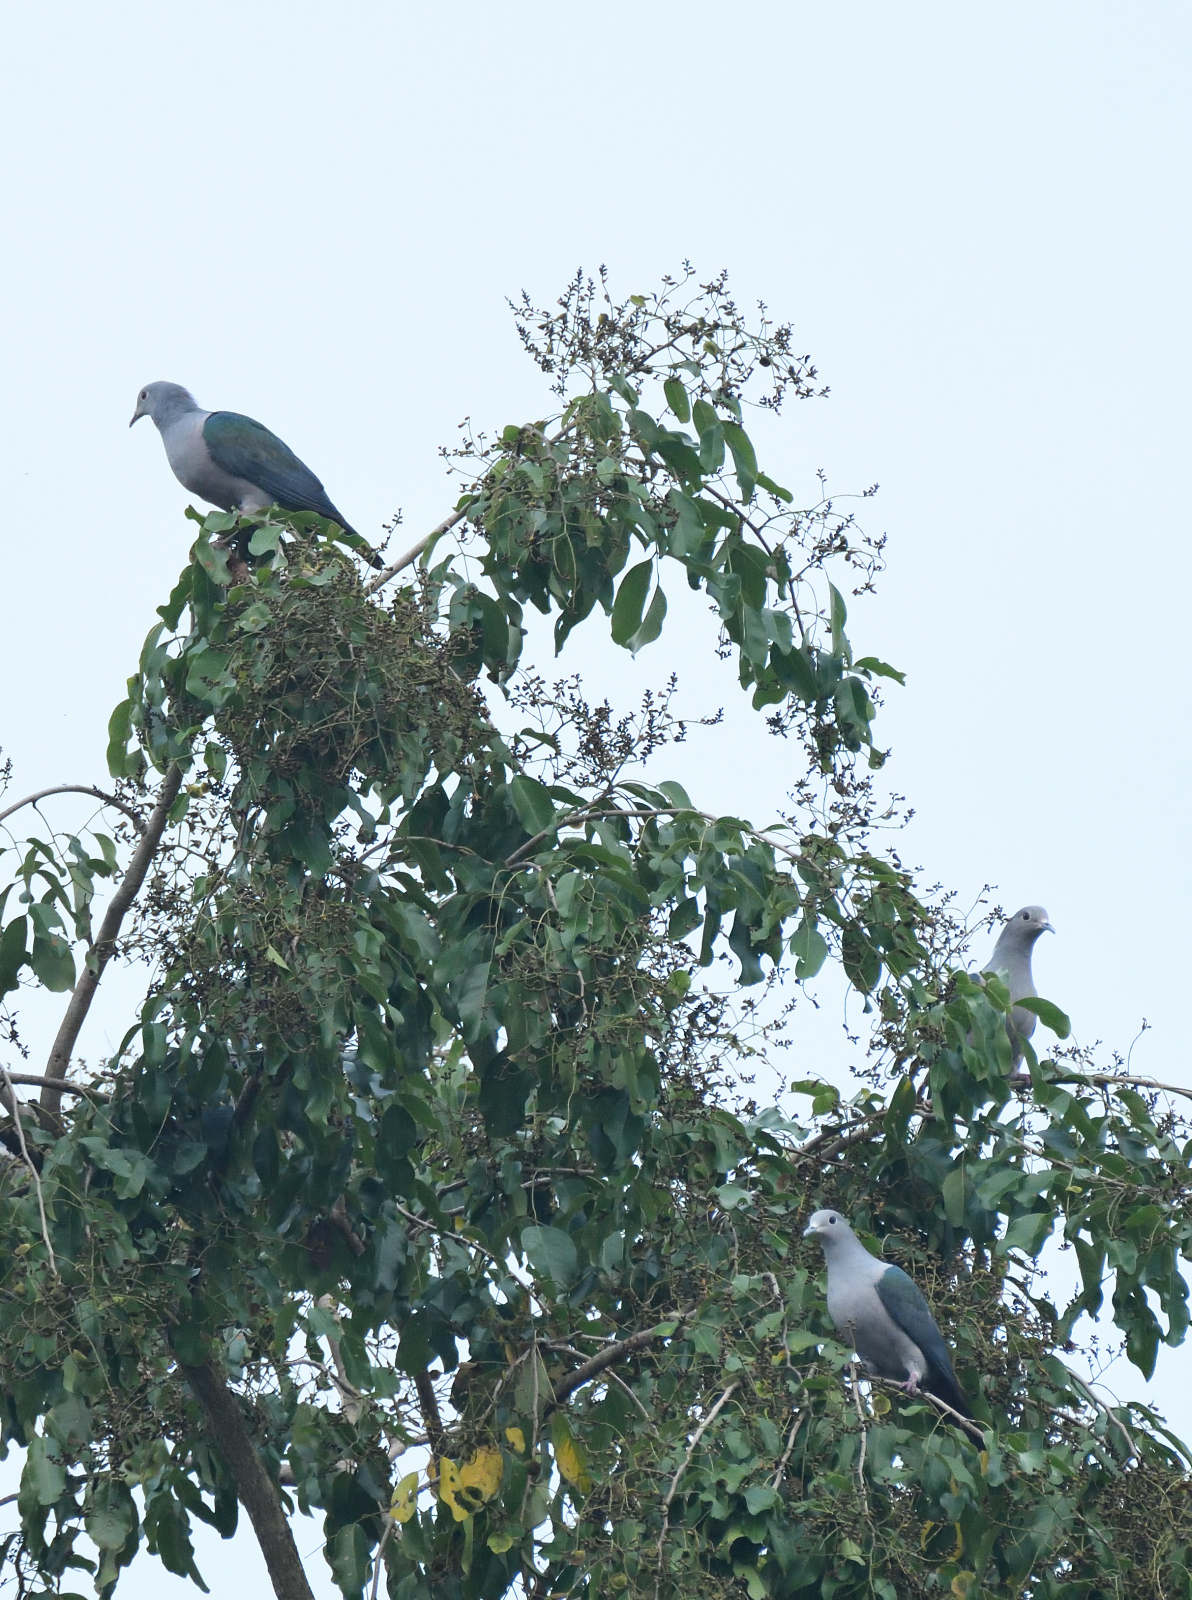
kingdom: Animalia
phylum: Chordata
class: Aves
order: Columbiformes
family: Columbidae
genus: Ducula
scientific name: Ducula aenea
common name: Green imperial pigeon
